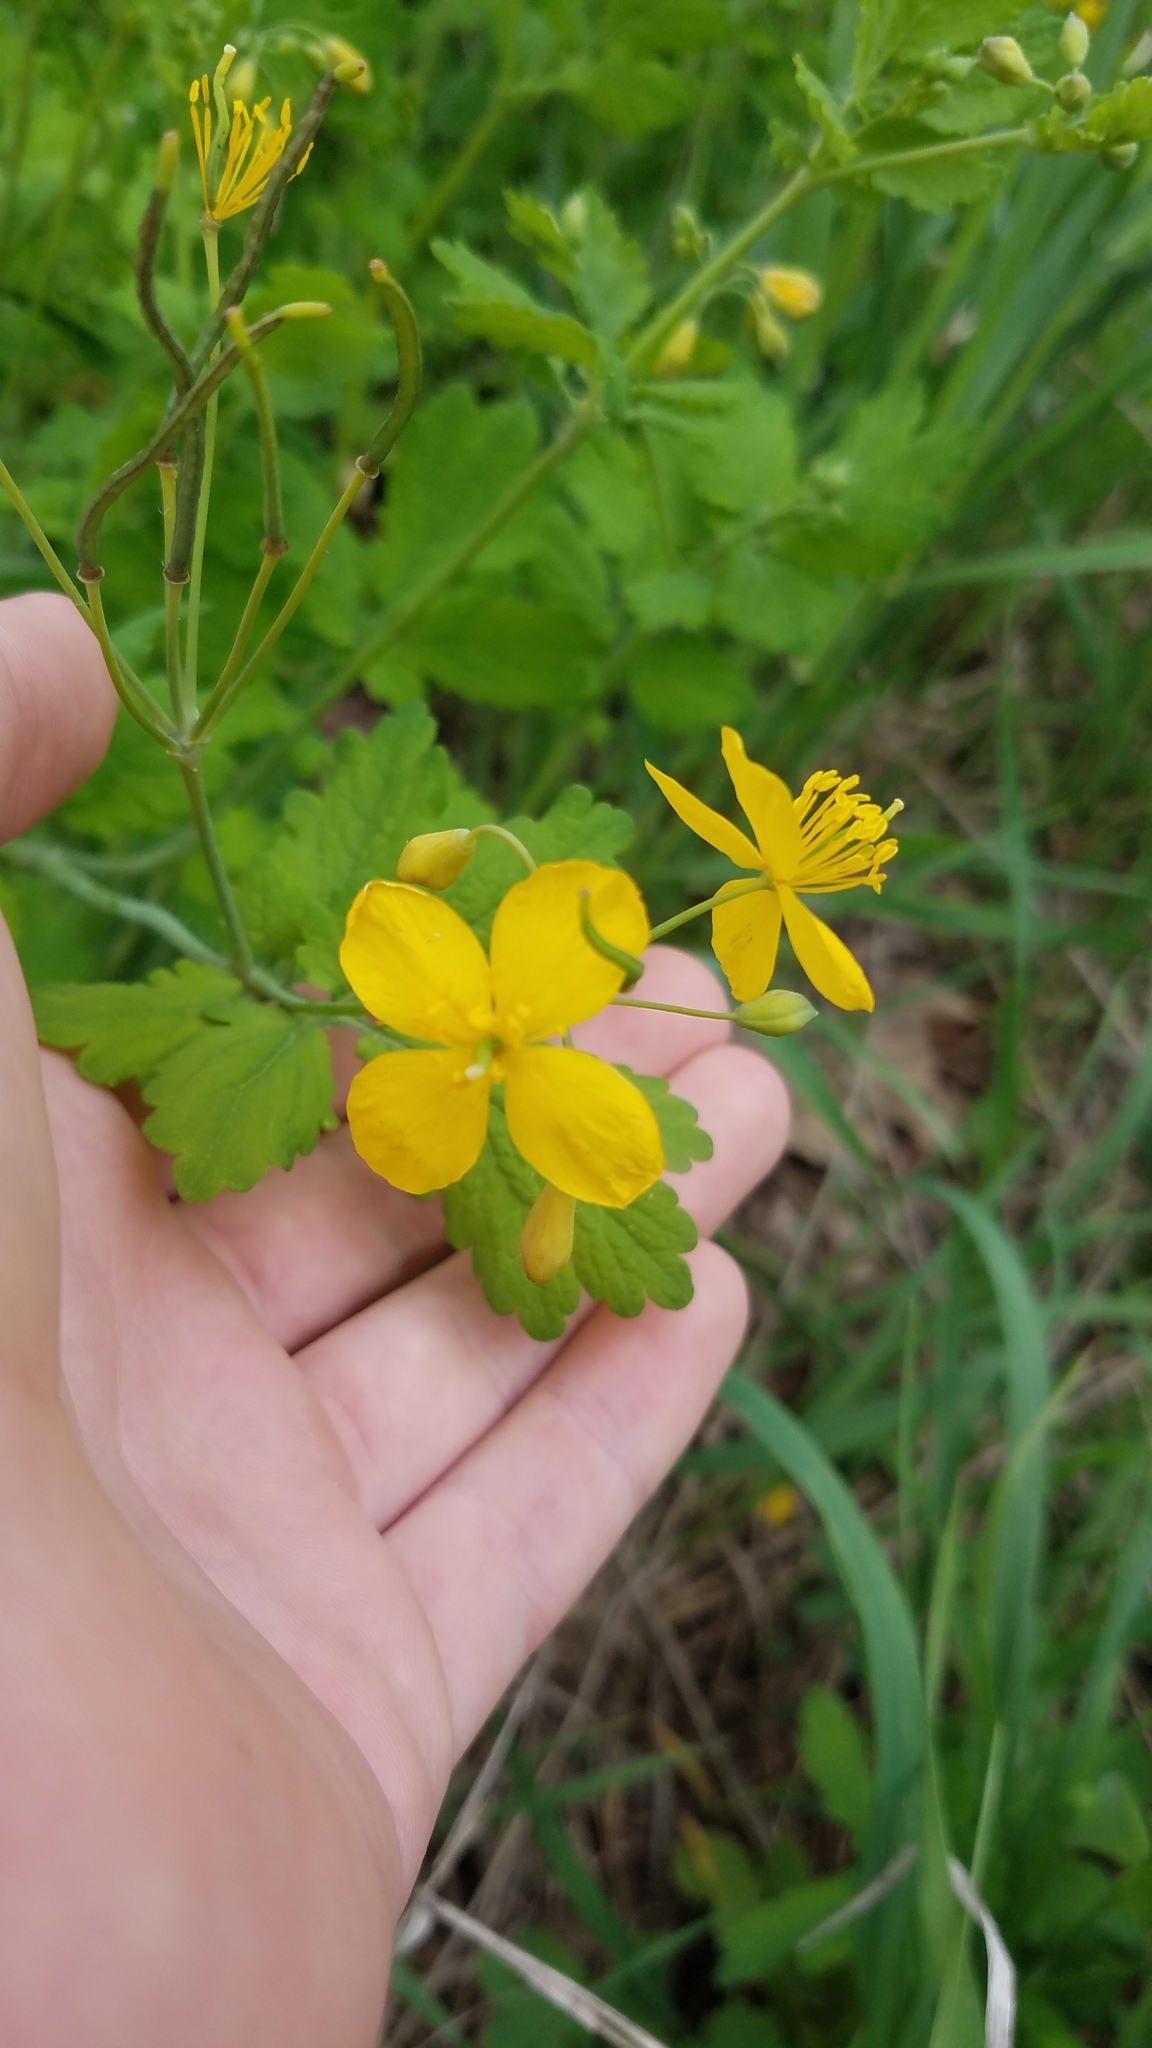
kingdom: Plantae
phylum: Tracheophyta
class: Magnoliopsida
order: Ranunculales
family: Papaveraceae
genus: Chelidonium
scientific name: Chelidonium majus
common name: Greater celandine
